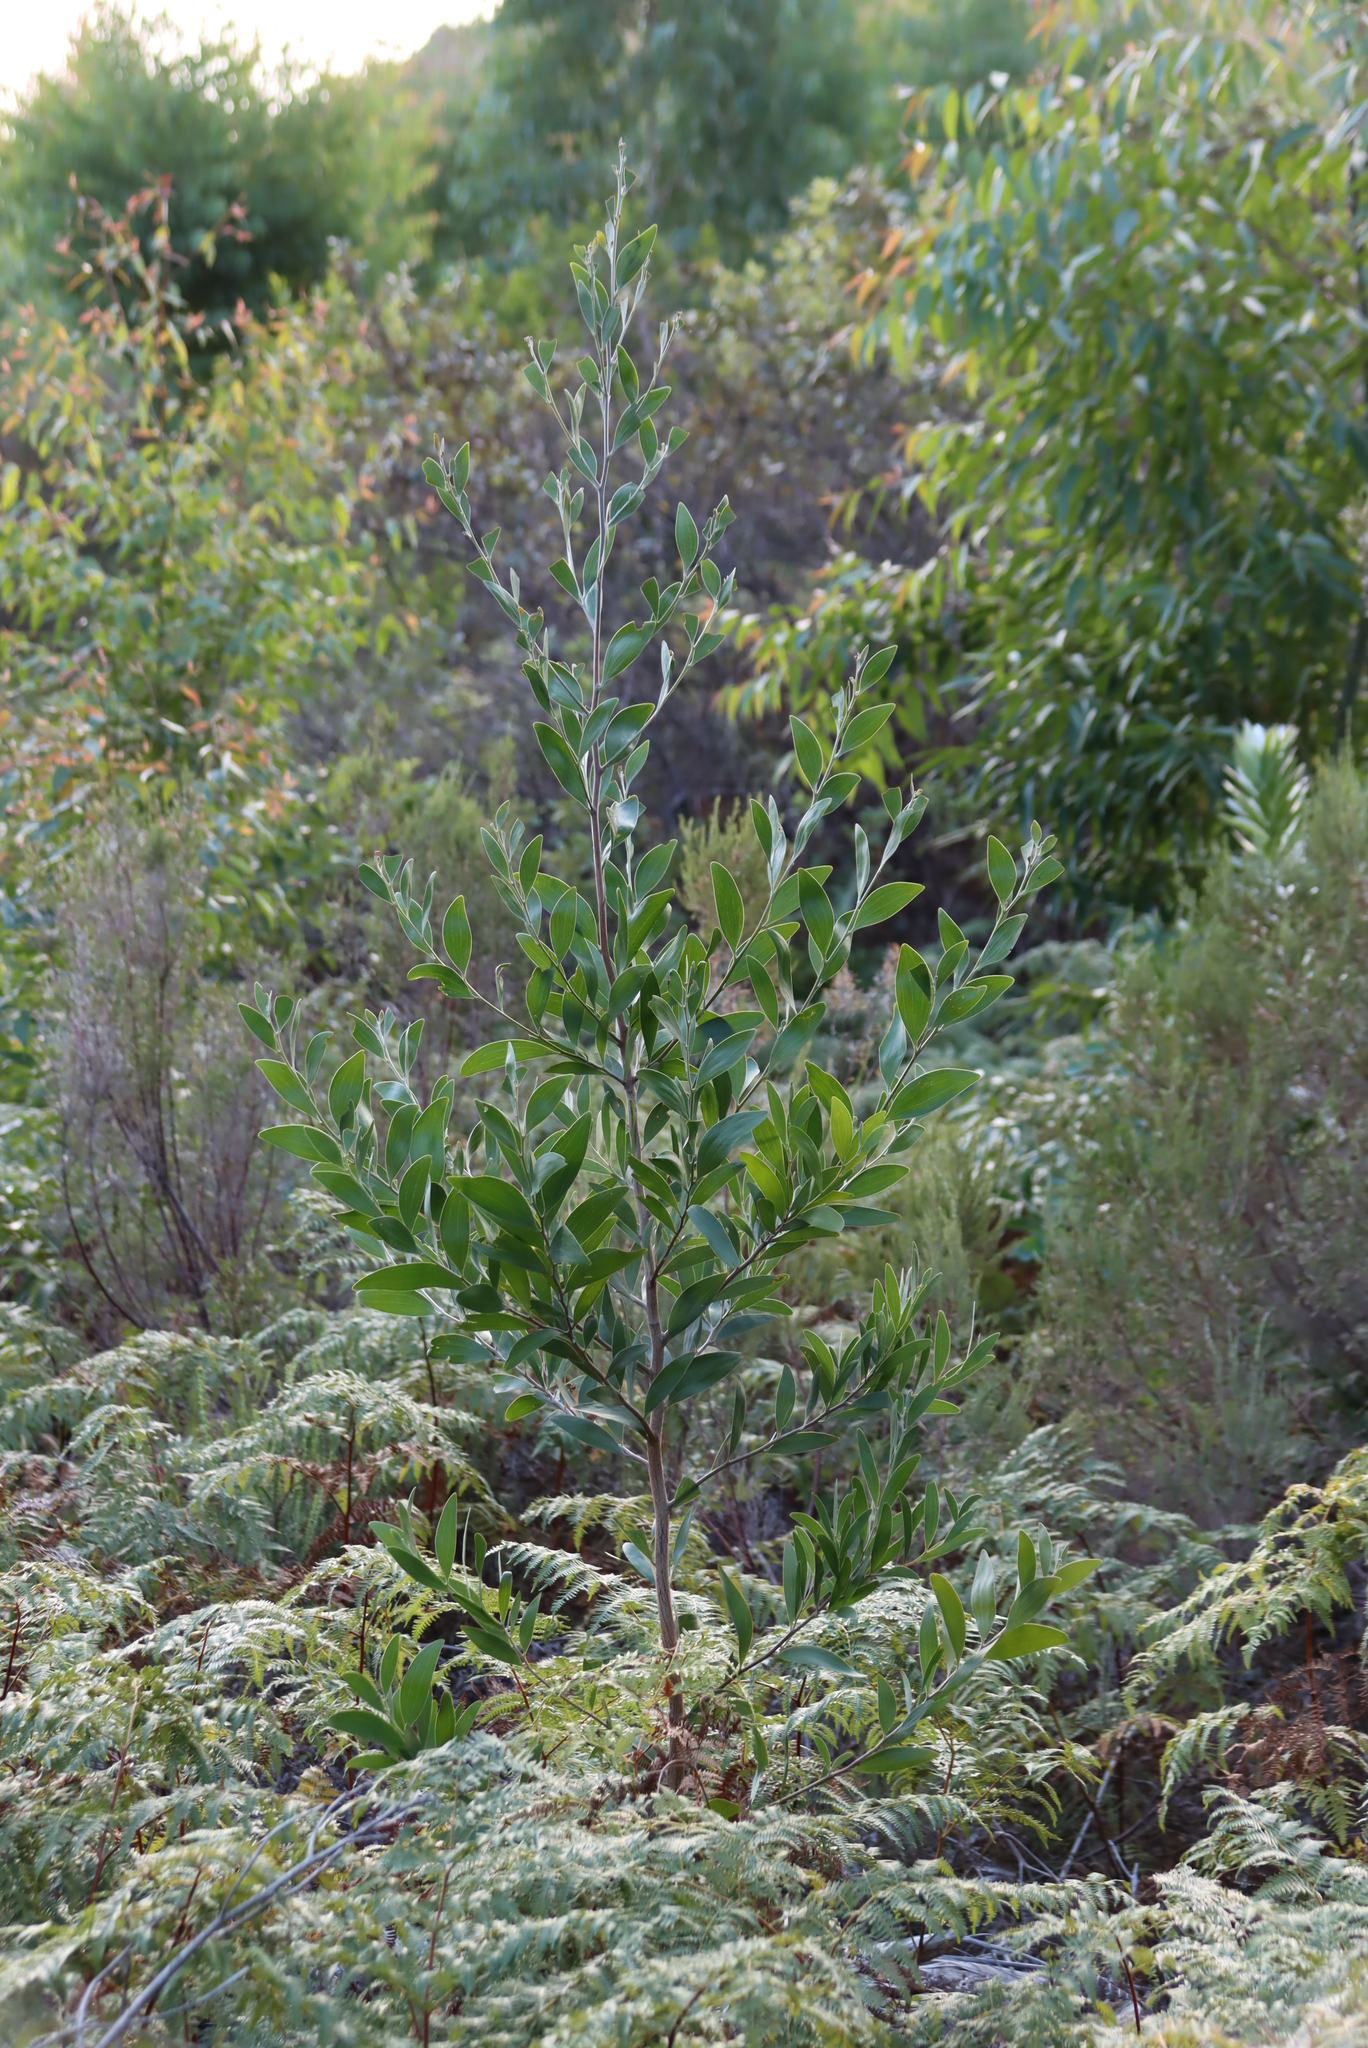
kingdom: Plantae
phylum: Tracheophyta
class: Magnoliopsida
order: Fabales
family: Fabaceae
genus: Acacia
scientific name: Acacia melanoxylon
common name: Blackwood
